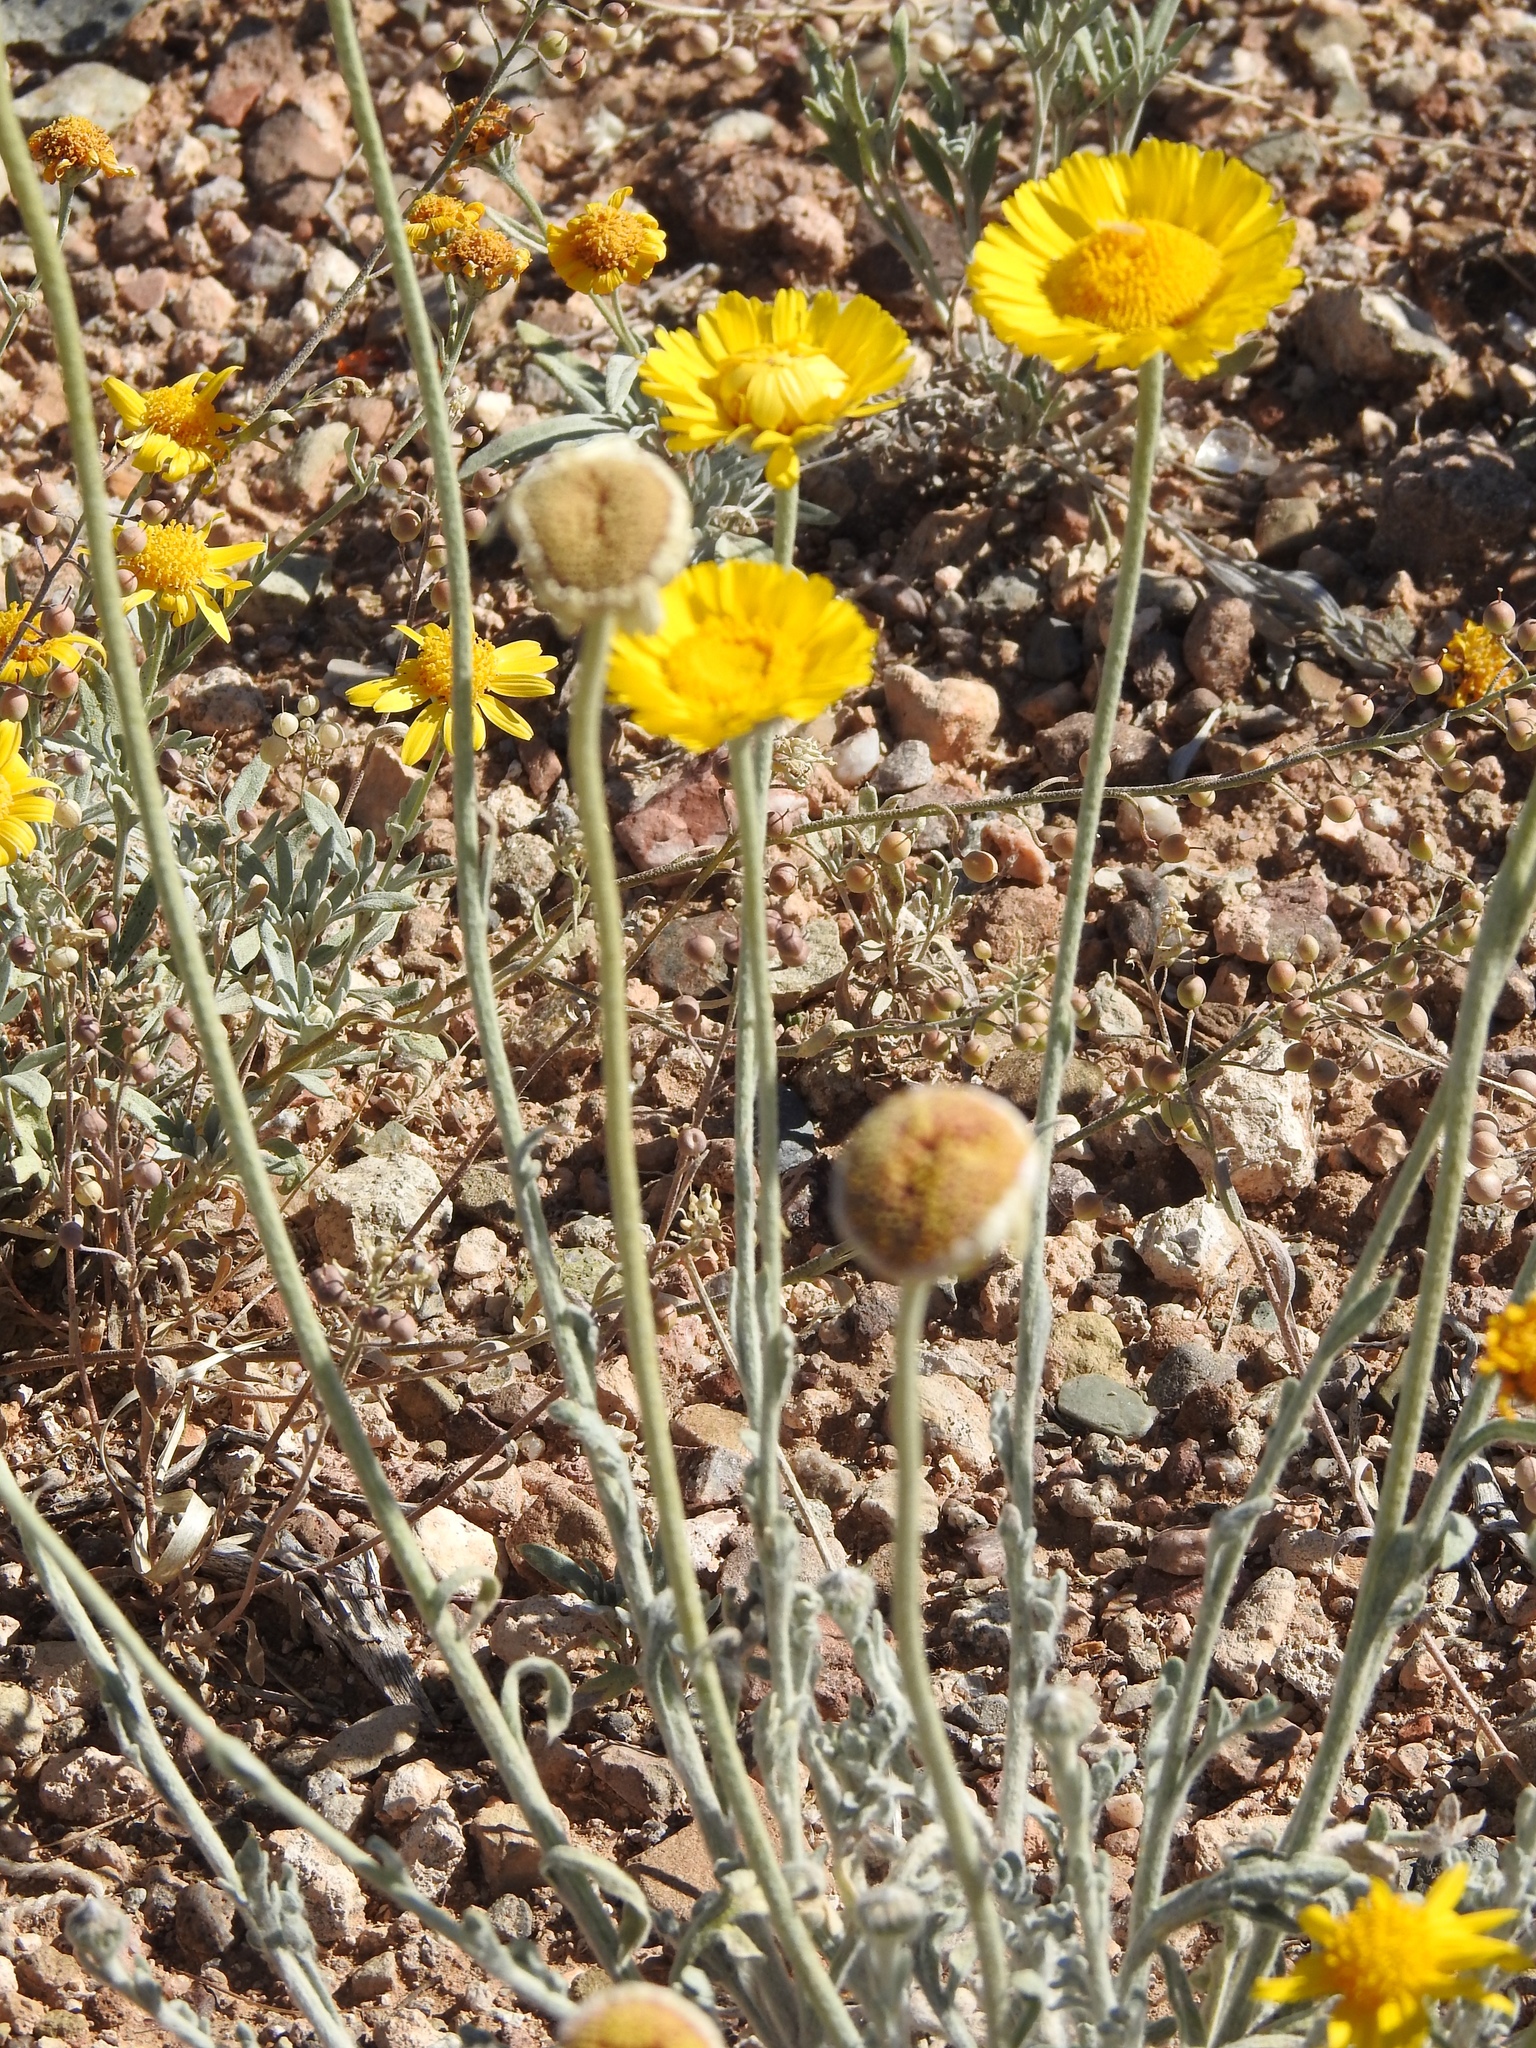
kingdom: Plantae
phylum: Tracheophyta
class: Magnoliopsida
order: Asterales
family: Asteraceae
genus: Baileya
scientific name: Baileya multiradiata
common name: Desert-marigold
